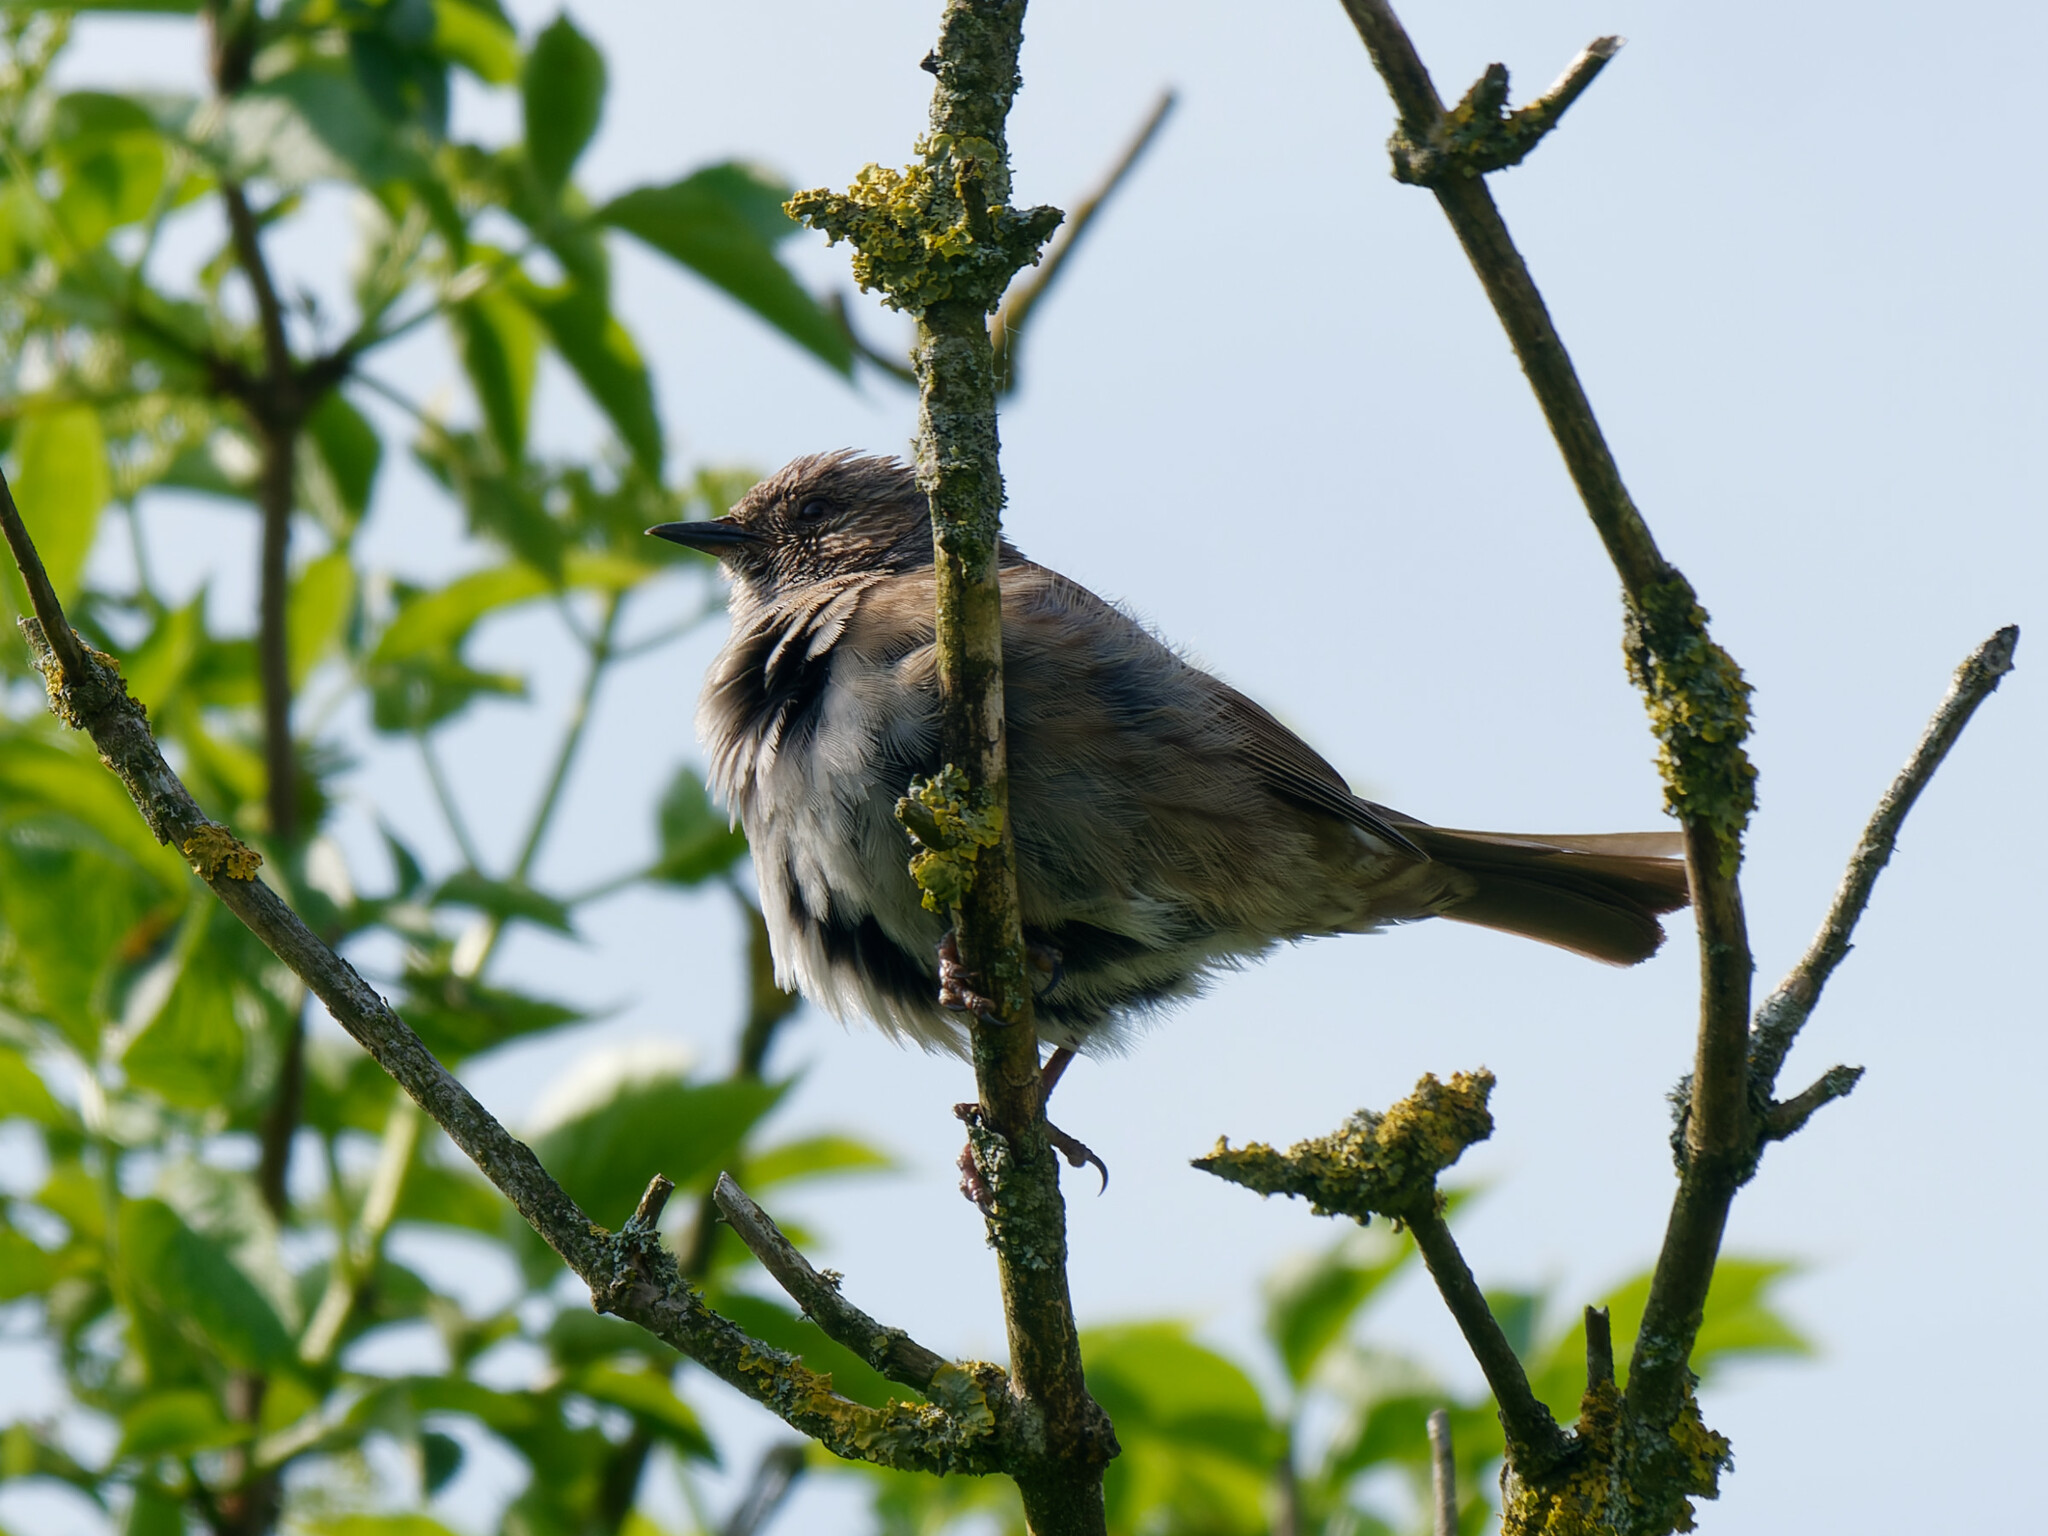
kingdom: Animalia
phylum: Chordata
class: Aves
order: Passeriformes
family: Prunellidae
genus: Prunella
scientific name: Prunella modularis
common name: Dunnock
